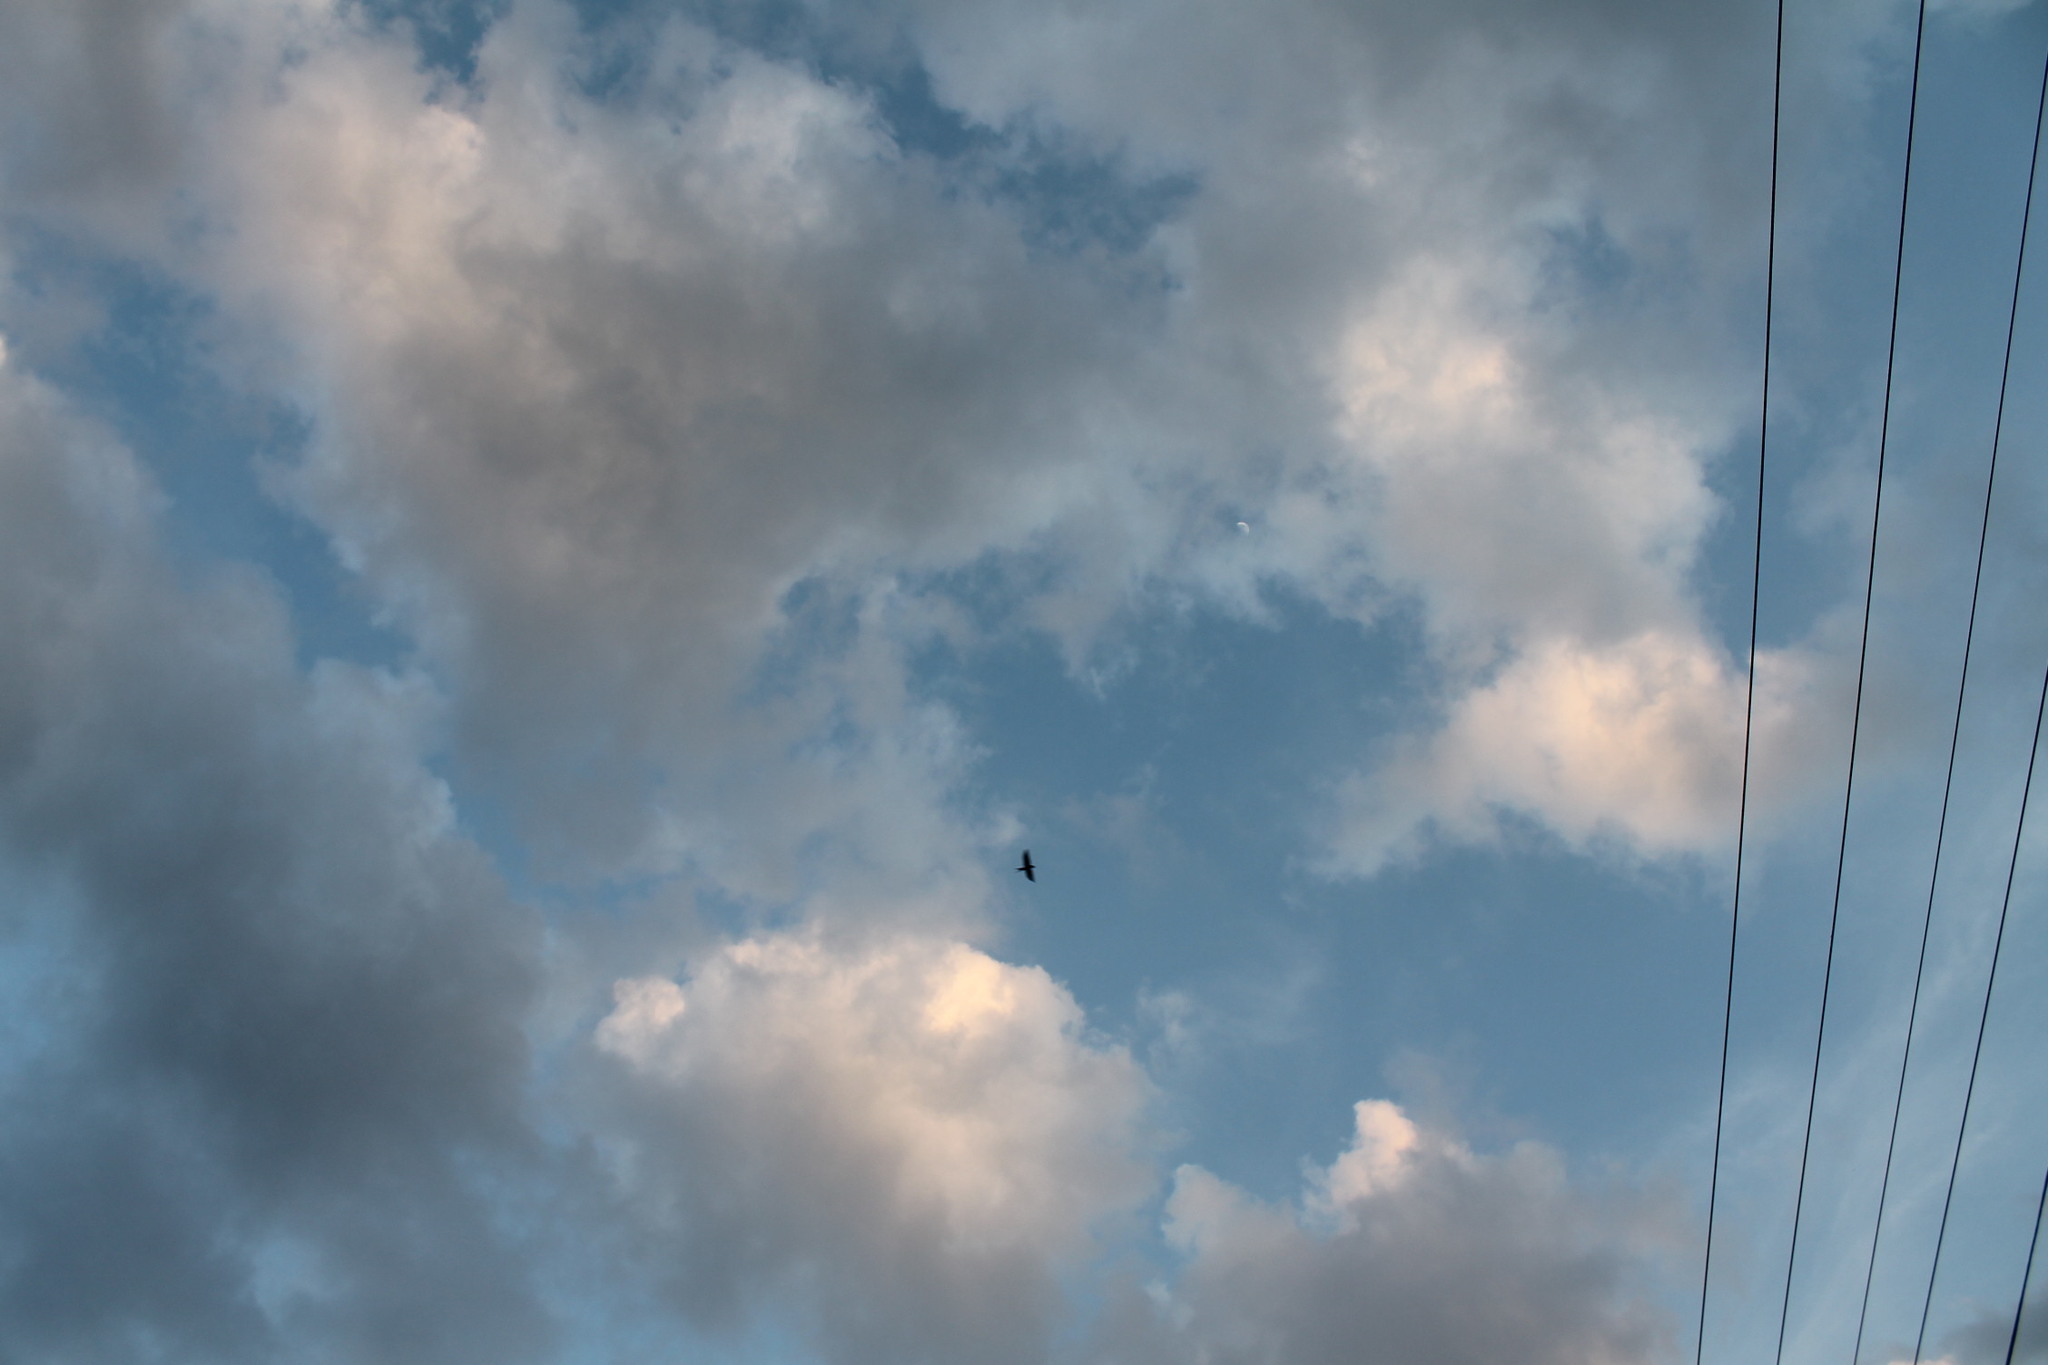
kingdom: Animalia
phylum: Chordata
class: Aves
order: Passeriformes
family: Hirundinidae
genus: Hirundo
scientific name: Hirundo rustica
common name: Barn swallow
